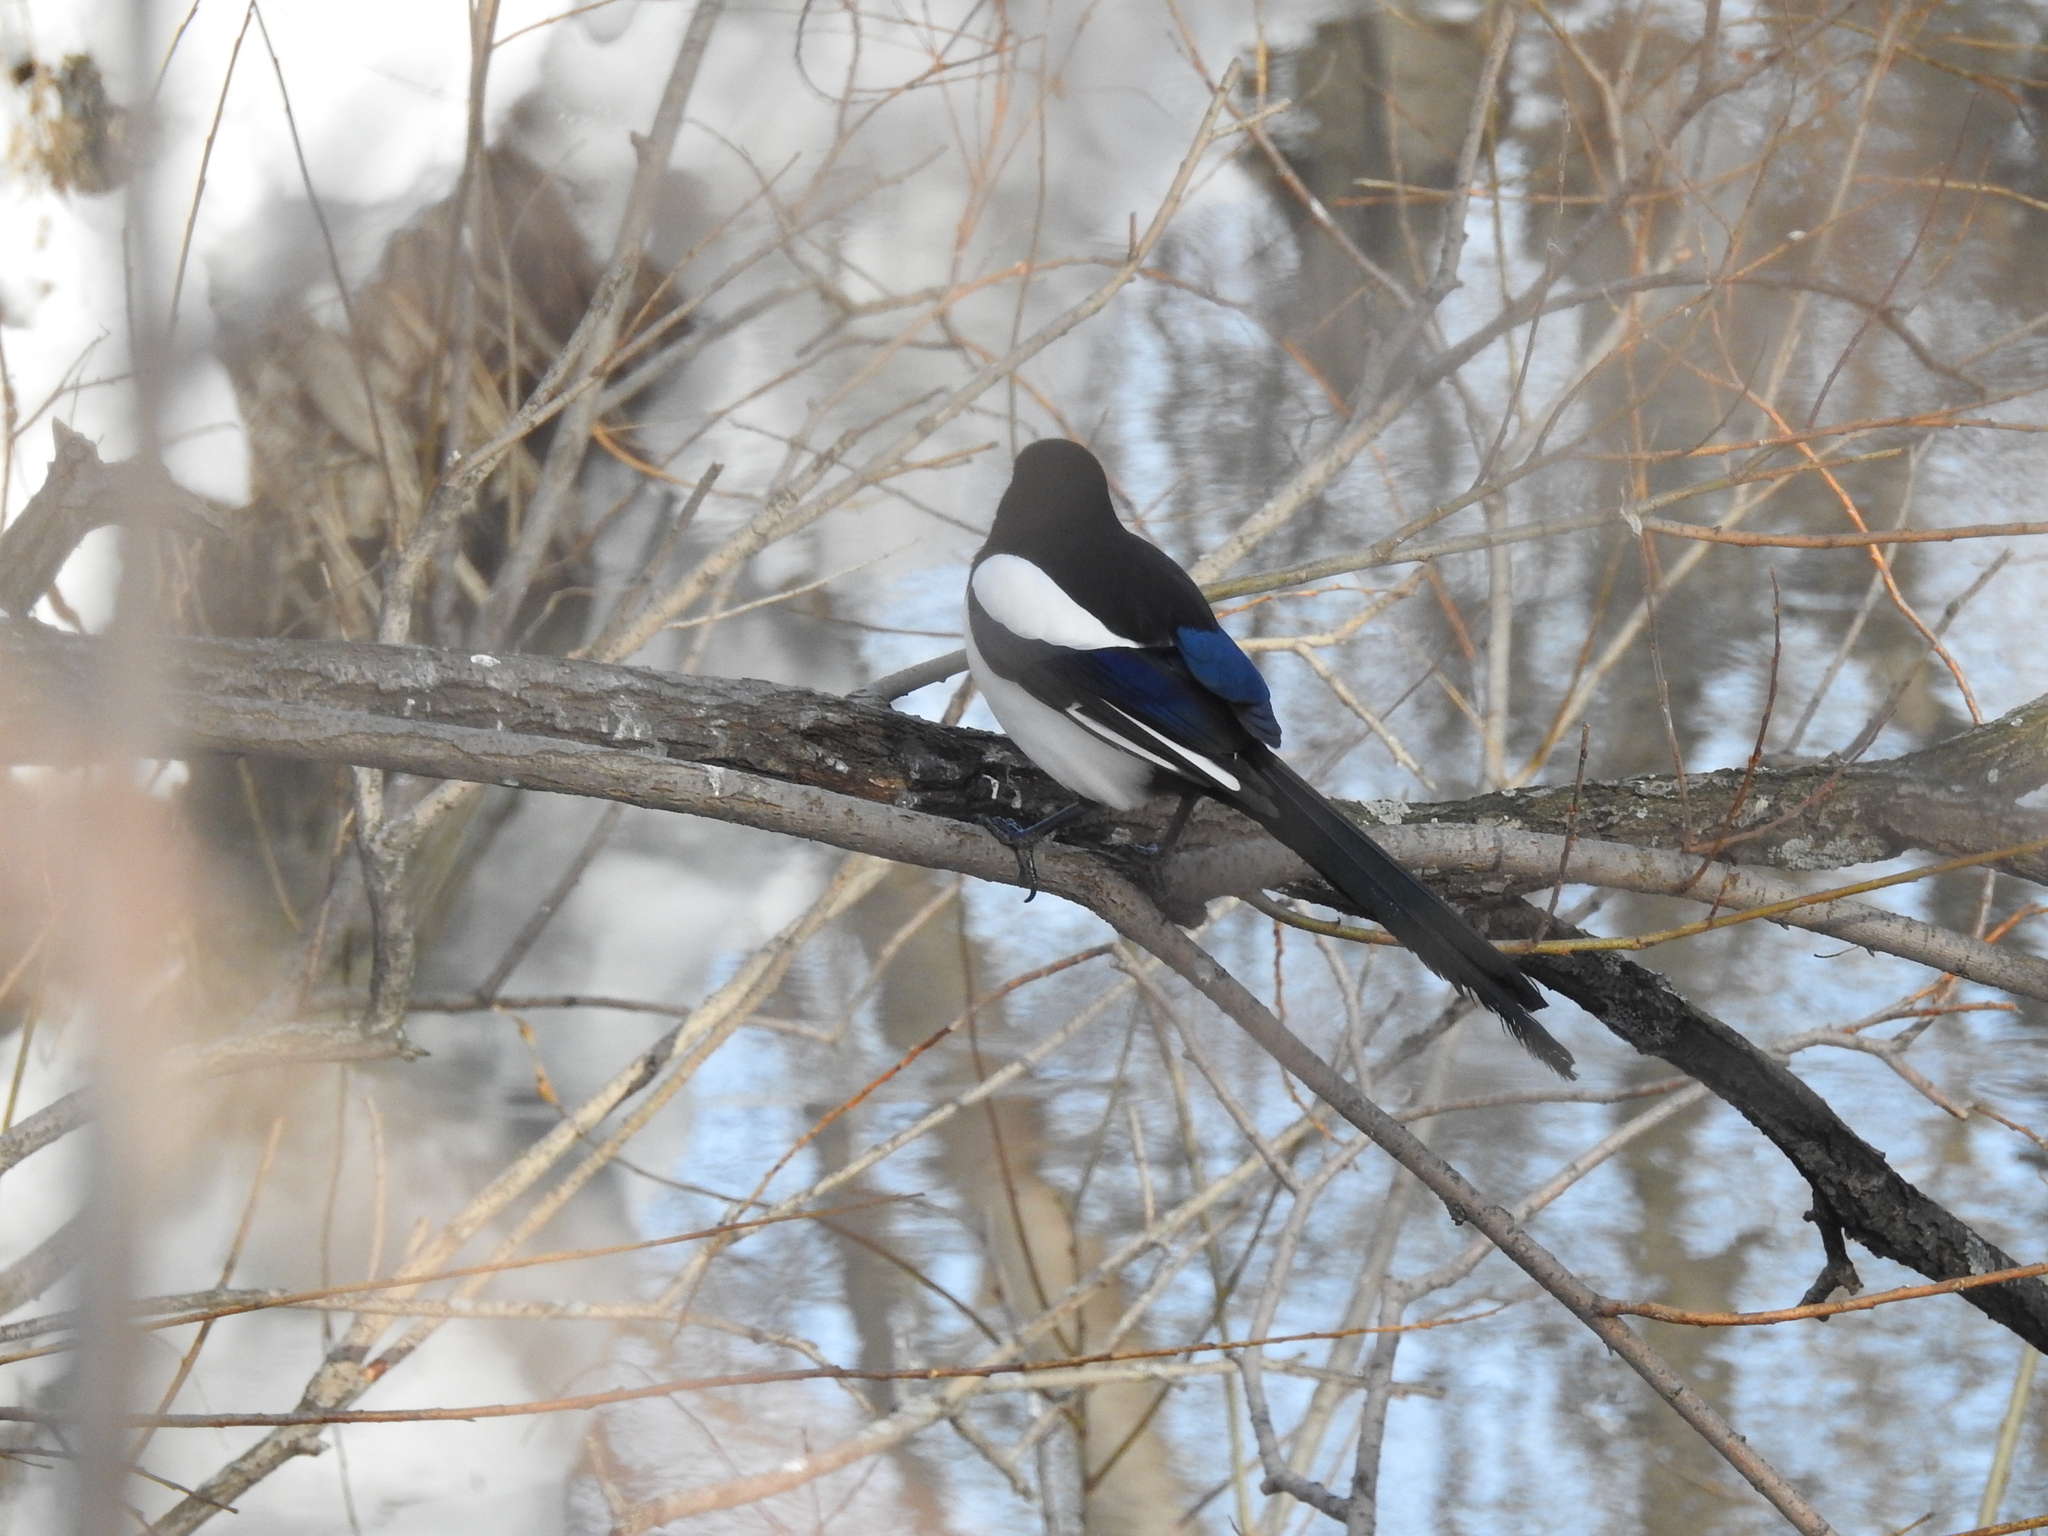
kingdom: Animalia
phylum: Chordata
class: Aves
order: Passeriformes
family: Corvidae
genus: Pica
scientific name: Pica pica
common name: Eurasian magpie
